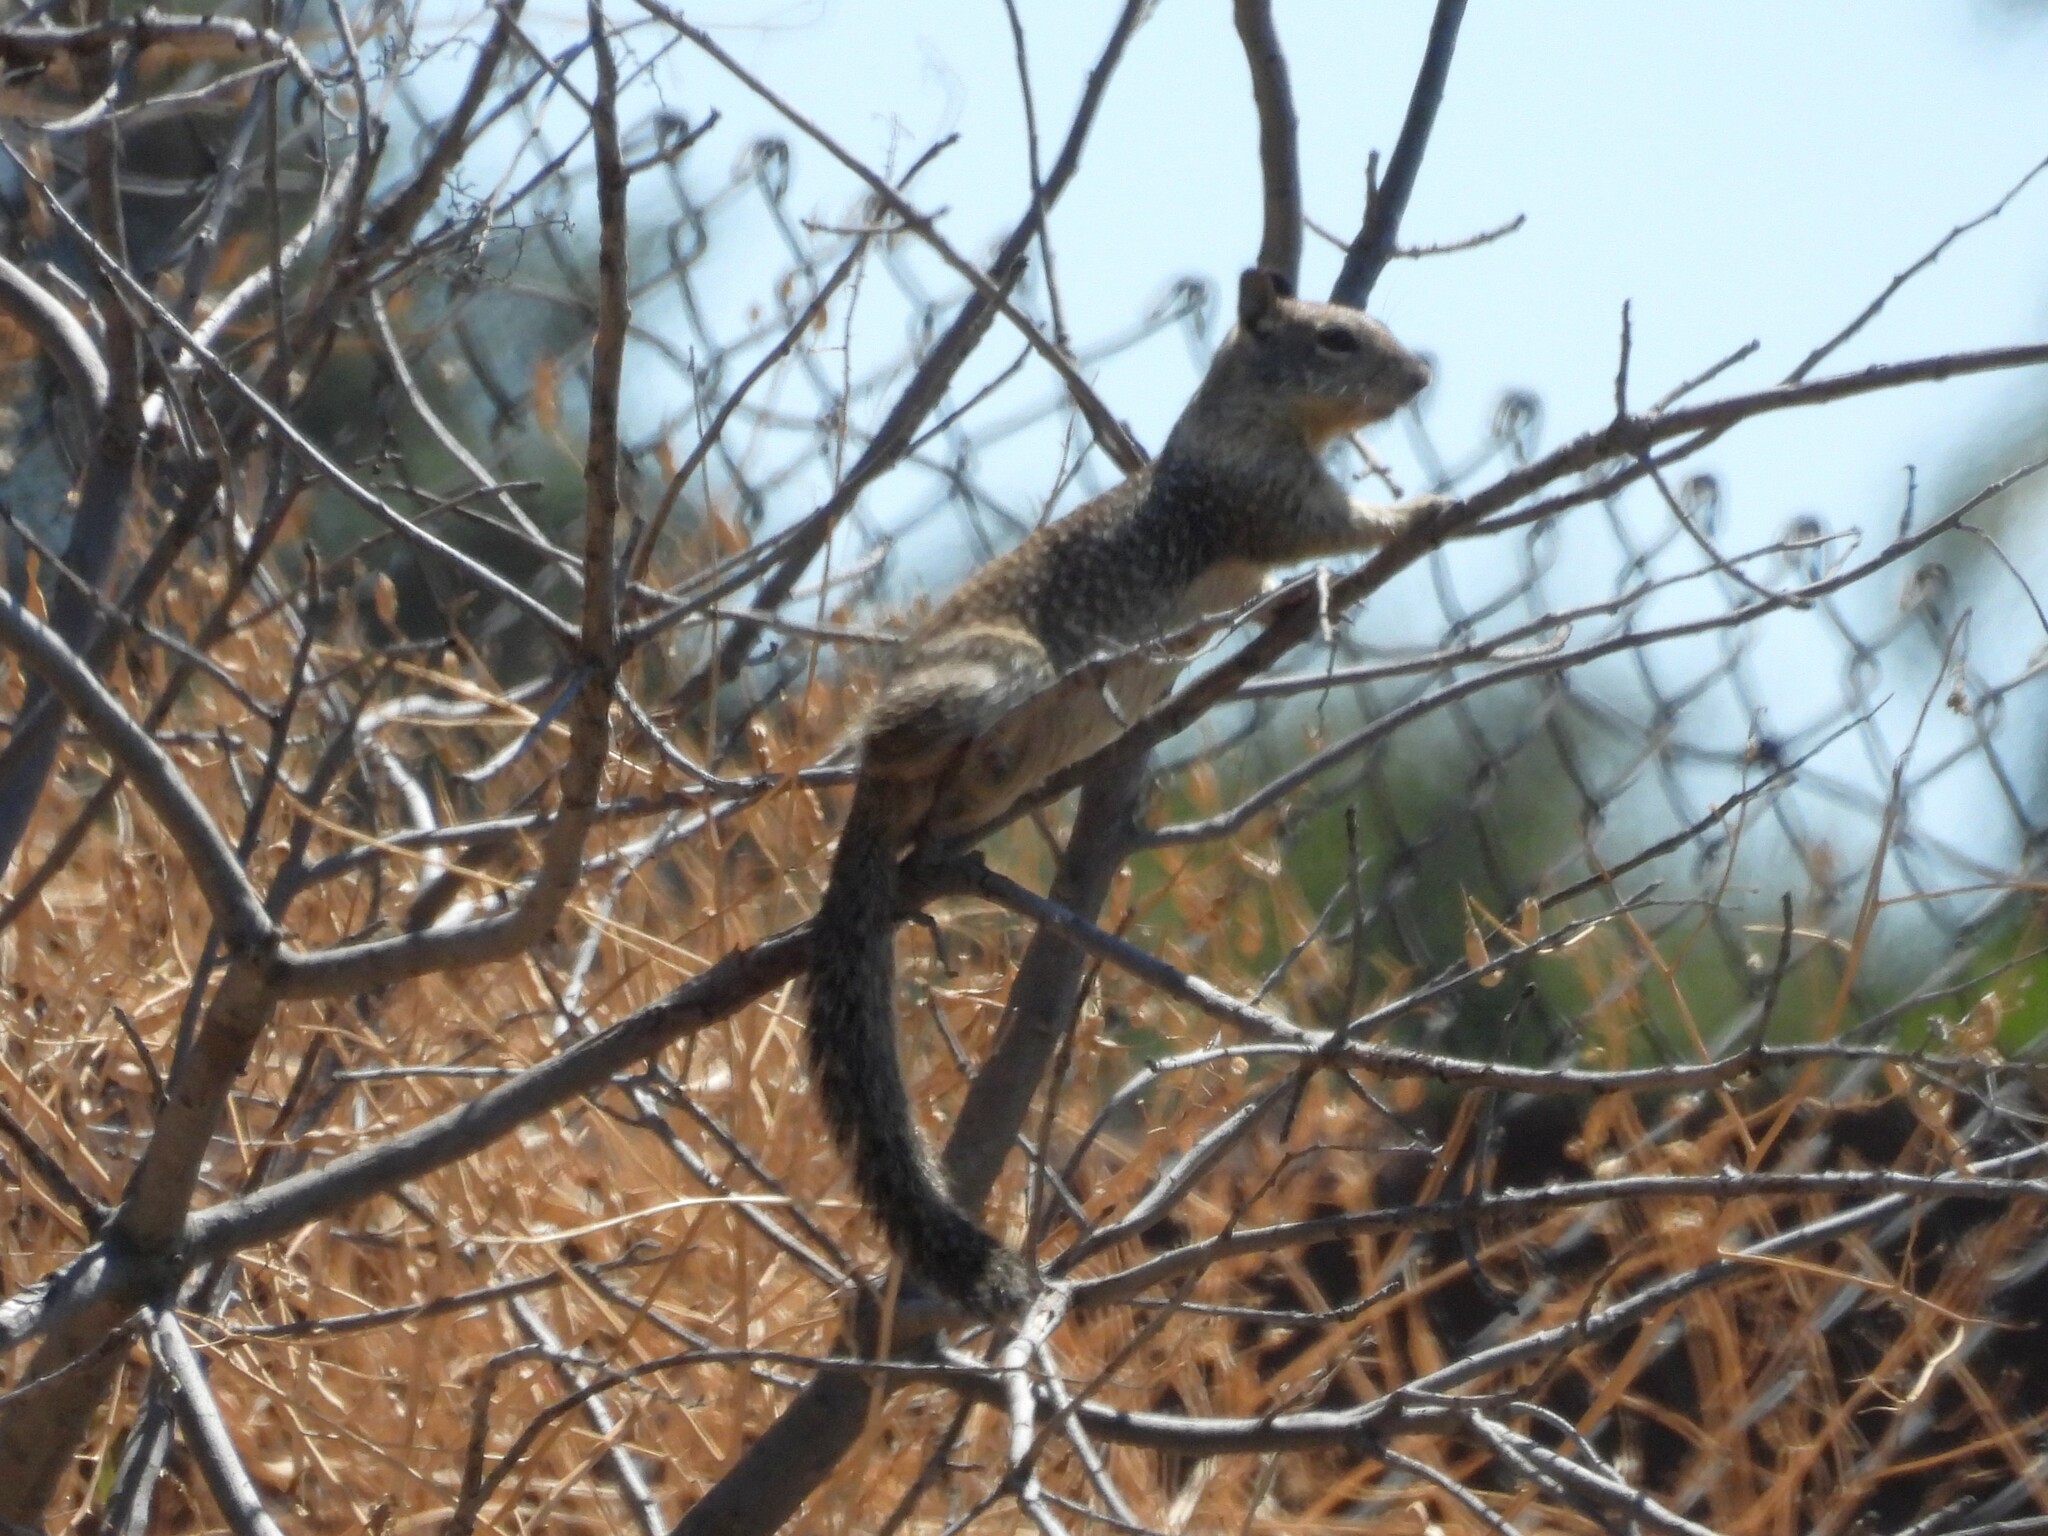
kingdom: Animalia
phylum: Chordata
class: Mammalia
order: Rodentia
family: Sciuridae
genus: Otospermophilus
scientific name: Otospermophilus beecheyi
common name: California ground squirrel
